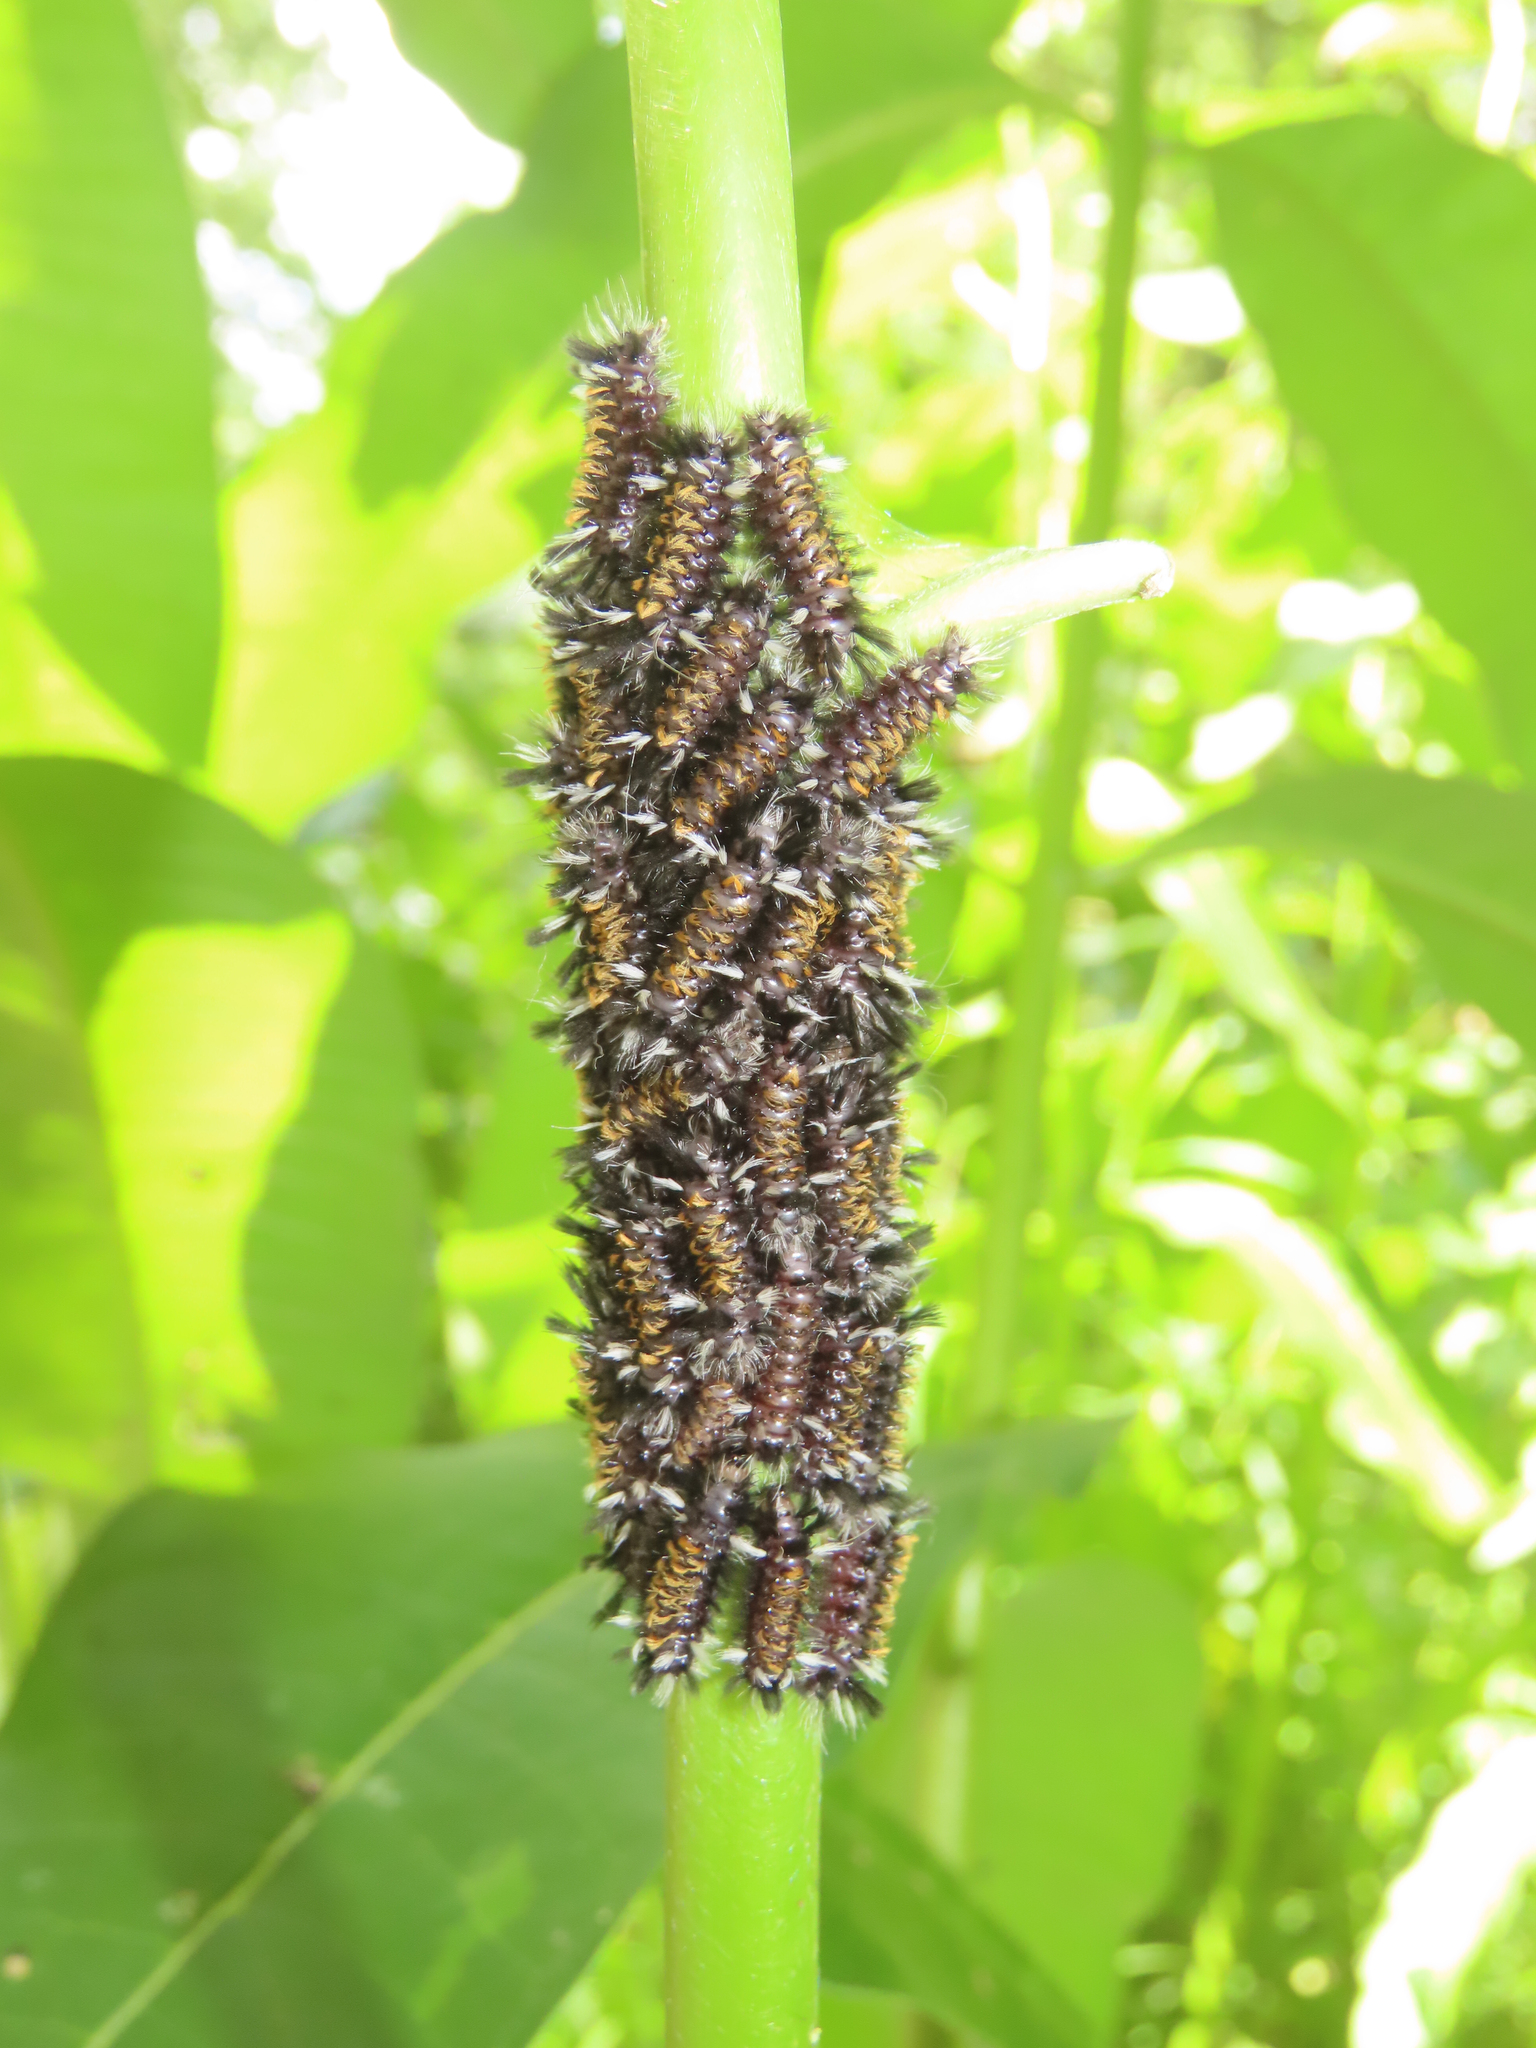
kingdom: Animalia
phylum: Arthropoda
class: Insecta
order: Lepidoptera
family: Erebidae
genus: Euchaetes
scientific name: Euchaetes egle
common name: Milkweed tussock moth
